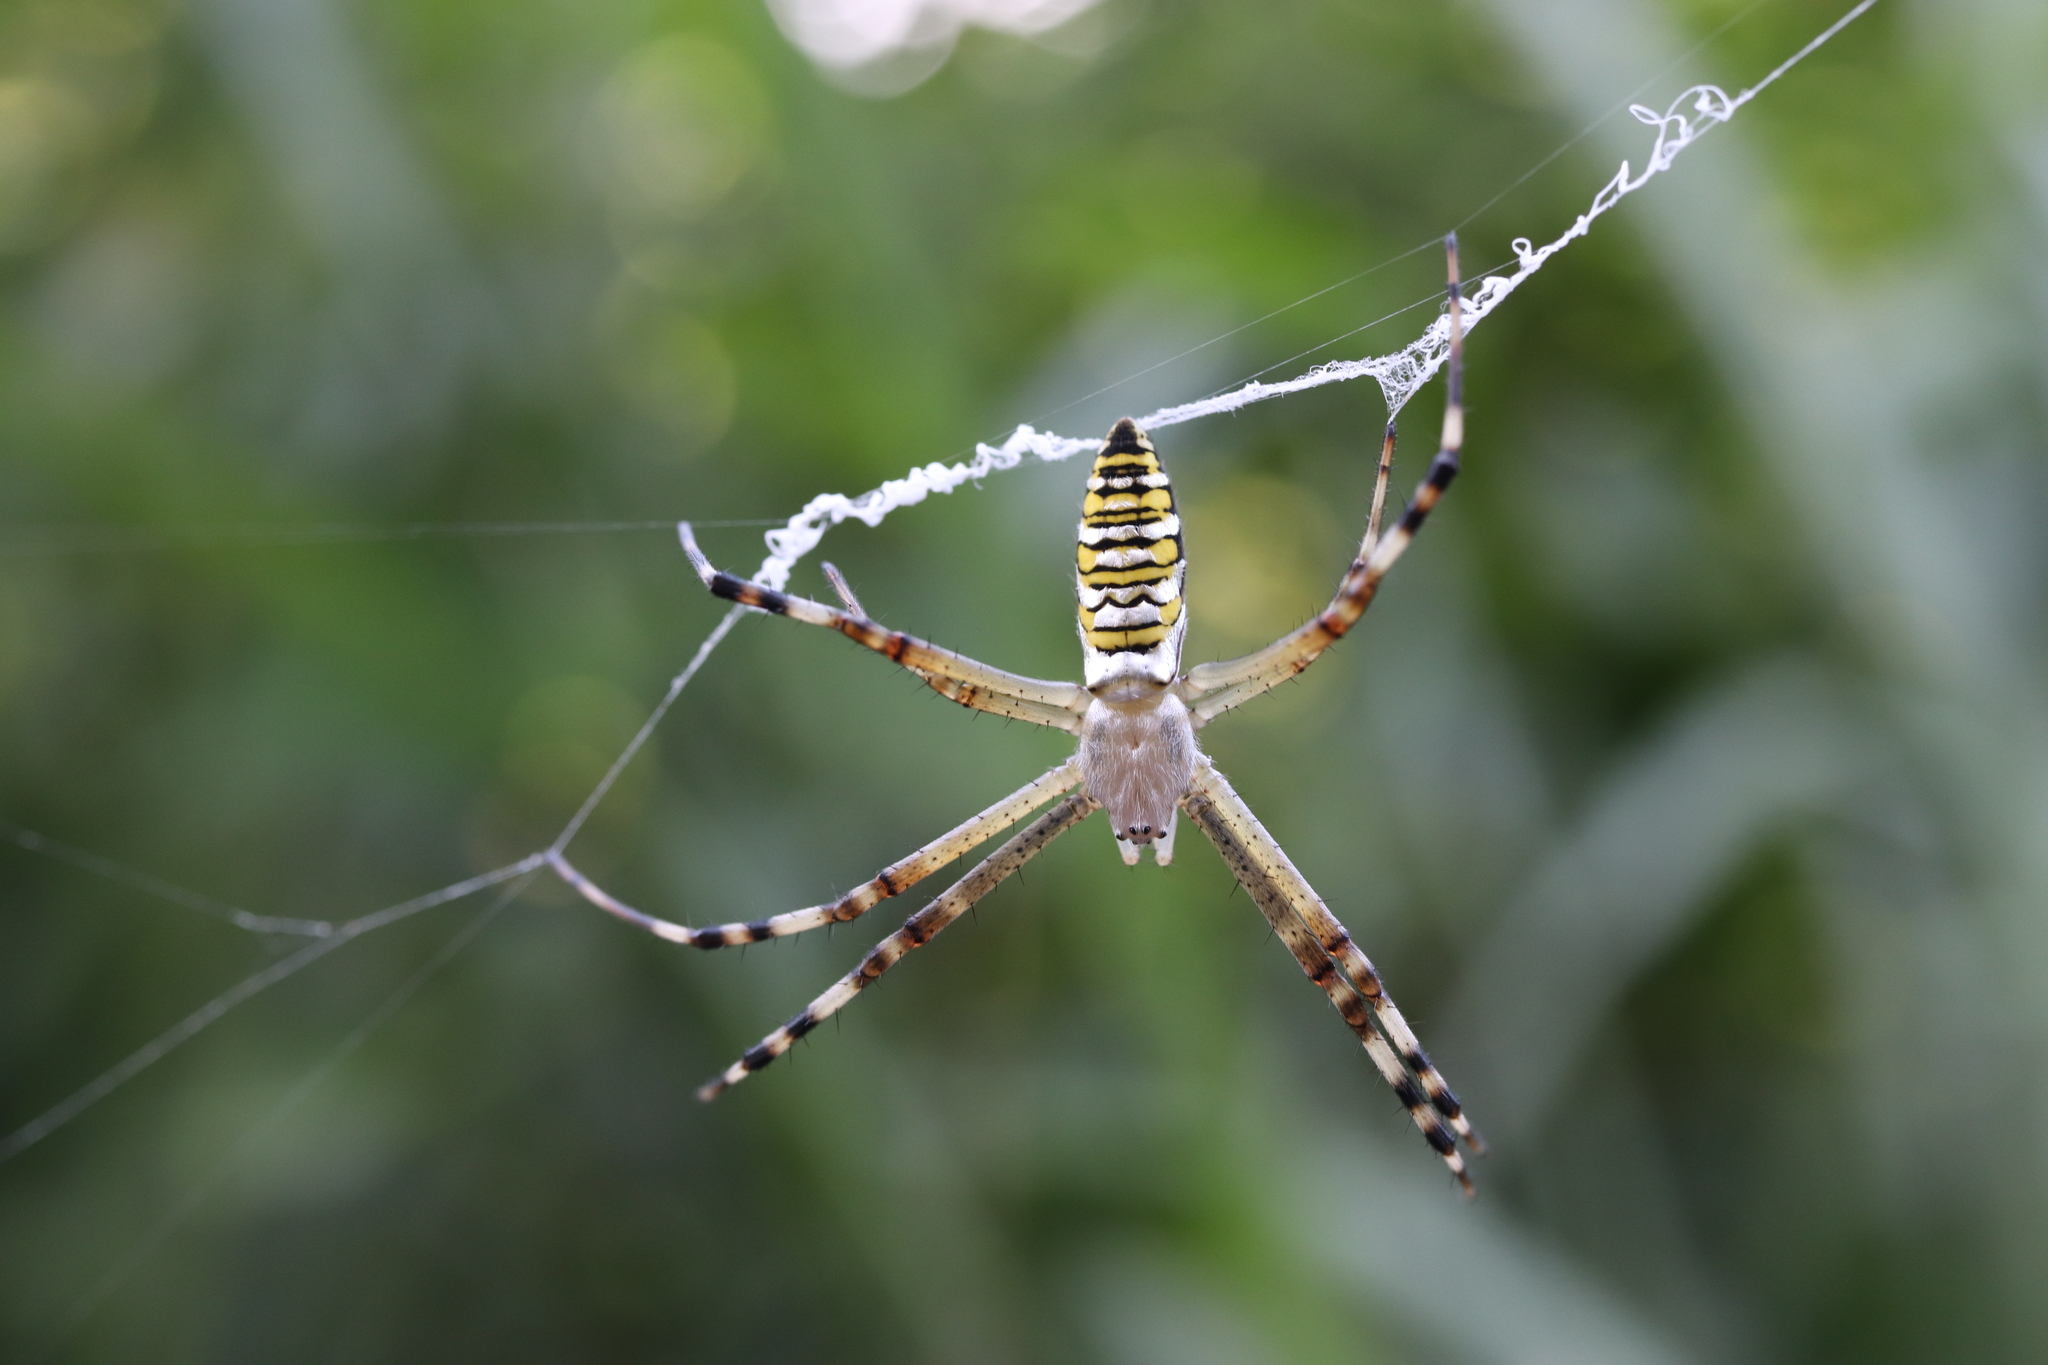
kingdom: Animalia
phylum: Arthropoda
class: Arachnida
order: Araneae
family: Araneidae
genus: Argiope
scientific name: Argiope bruennichi
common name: Wasp spider
